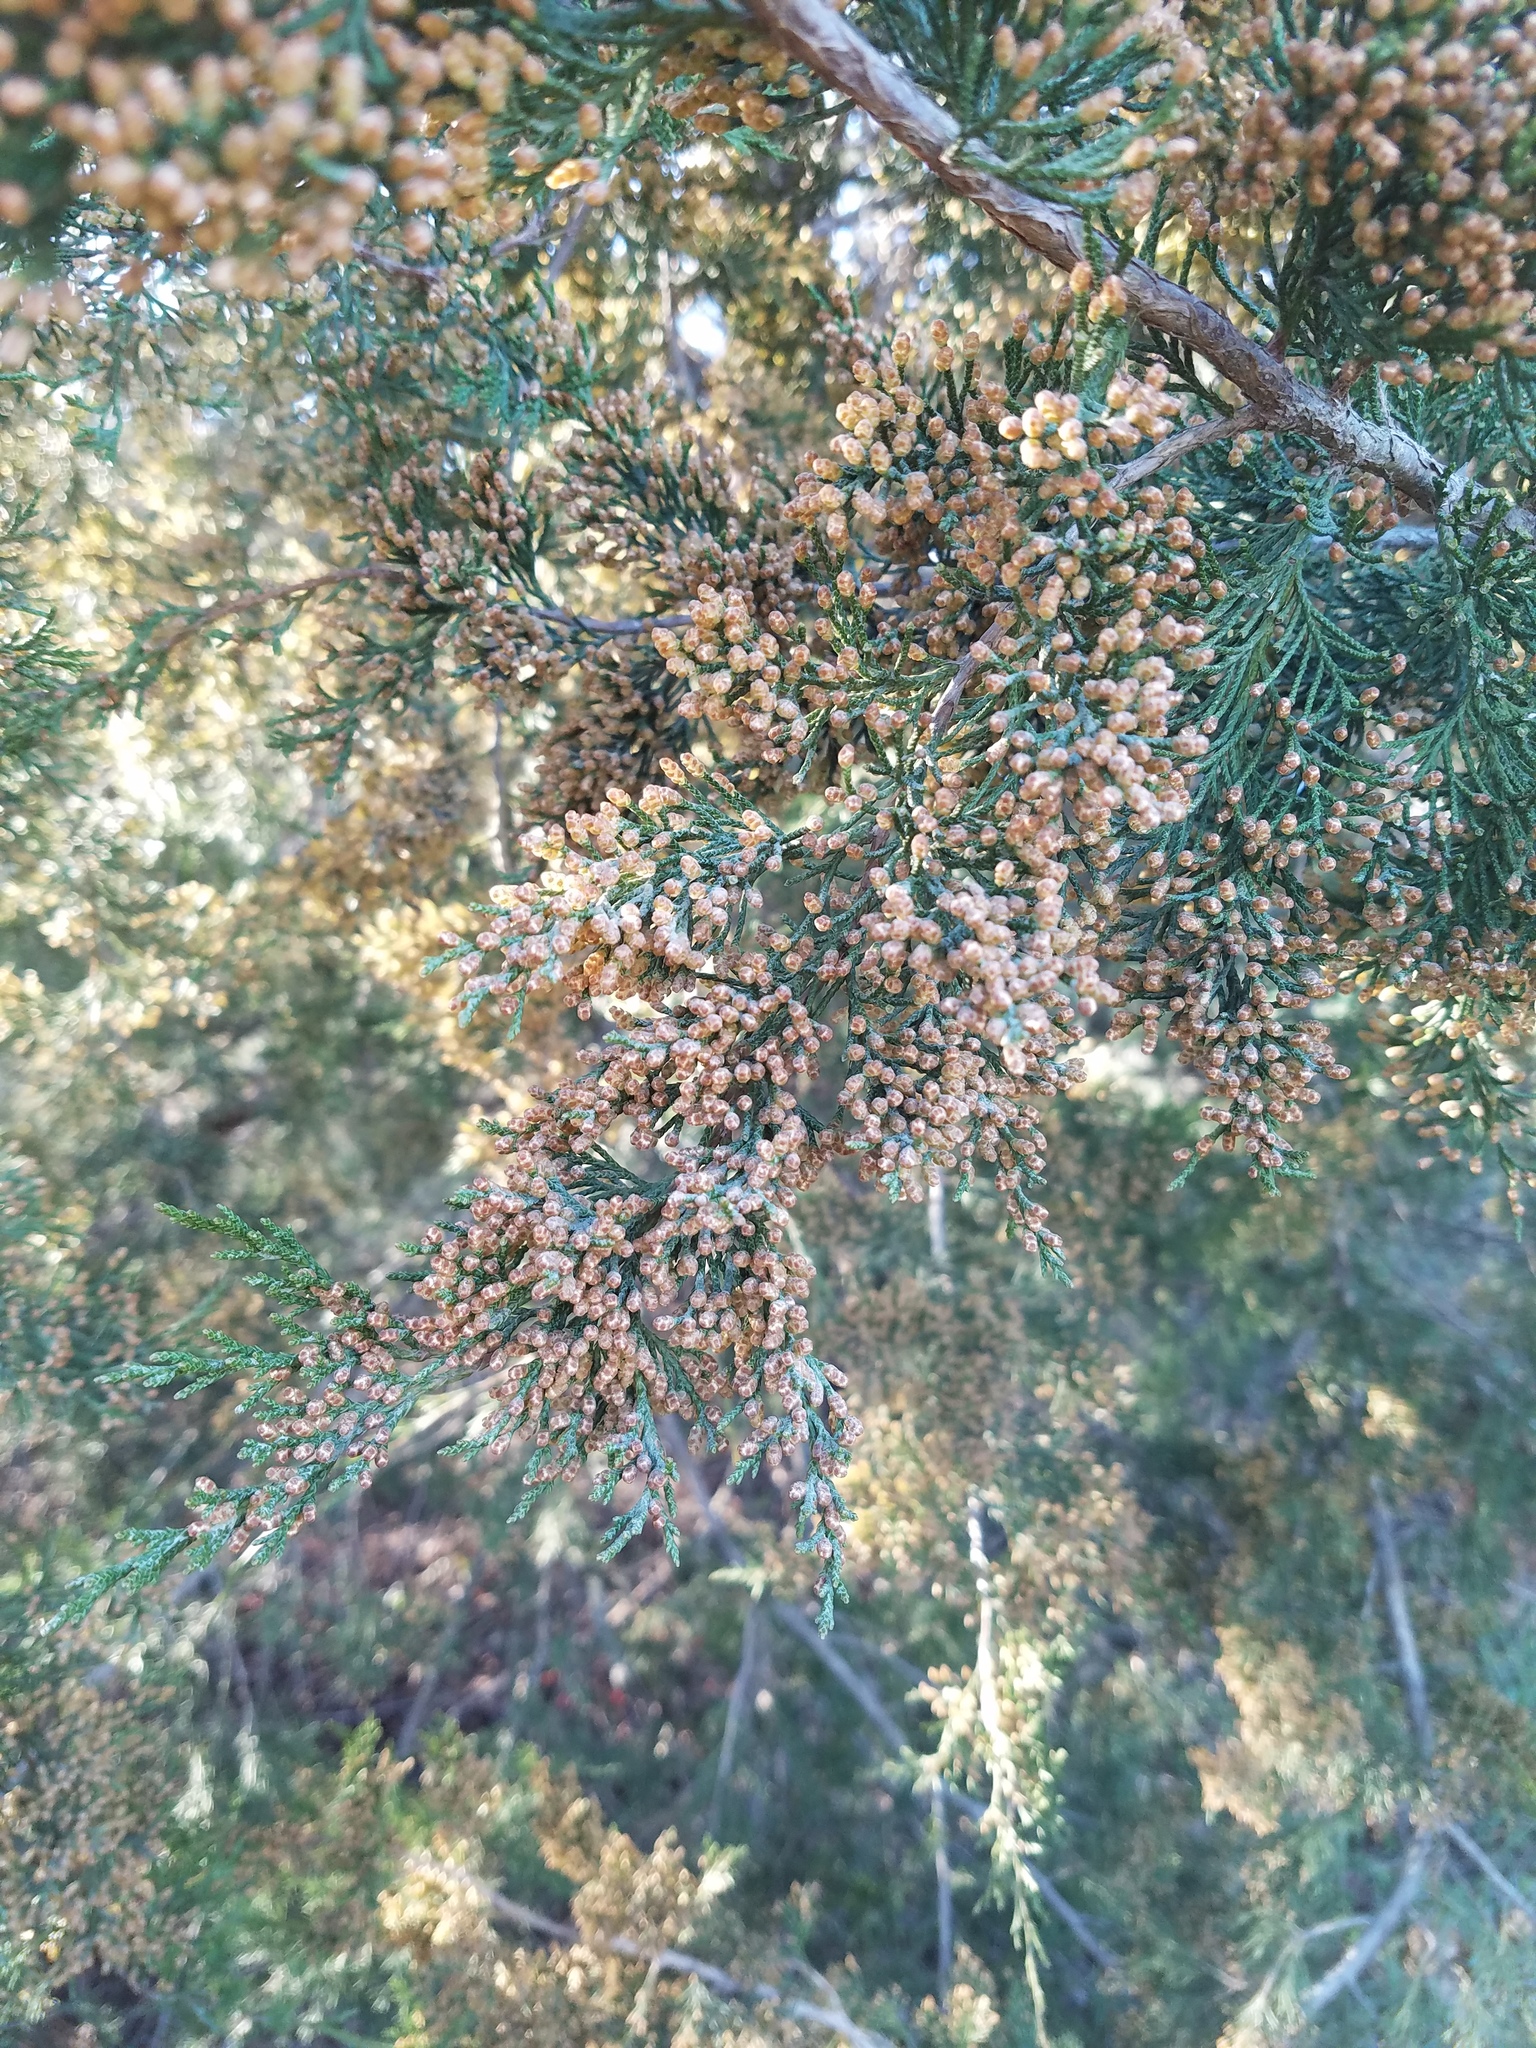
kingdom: Plantae
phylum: Tracheophyta
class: Pinopsida
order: Pinales
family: Cupressaceae
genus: Juniperus
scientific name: Juniperus virginiana
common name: Red juniper
